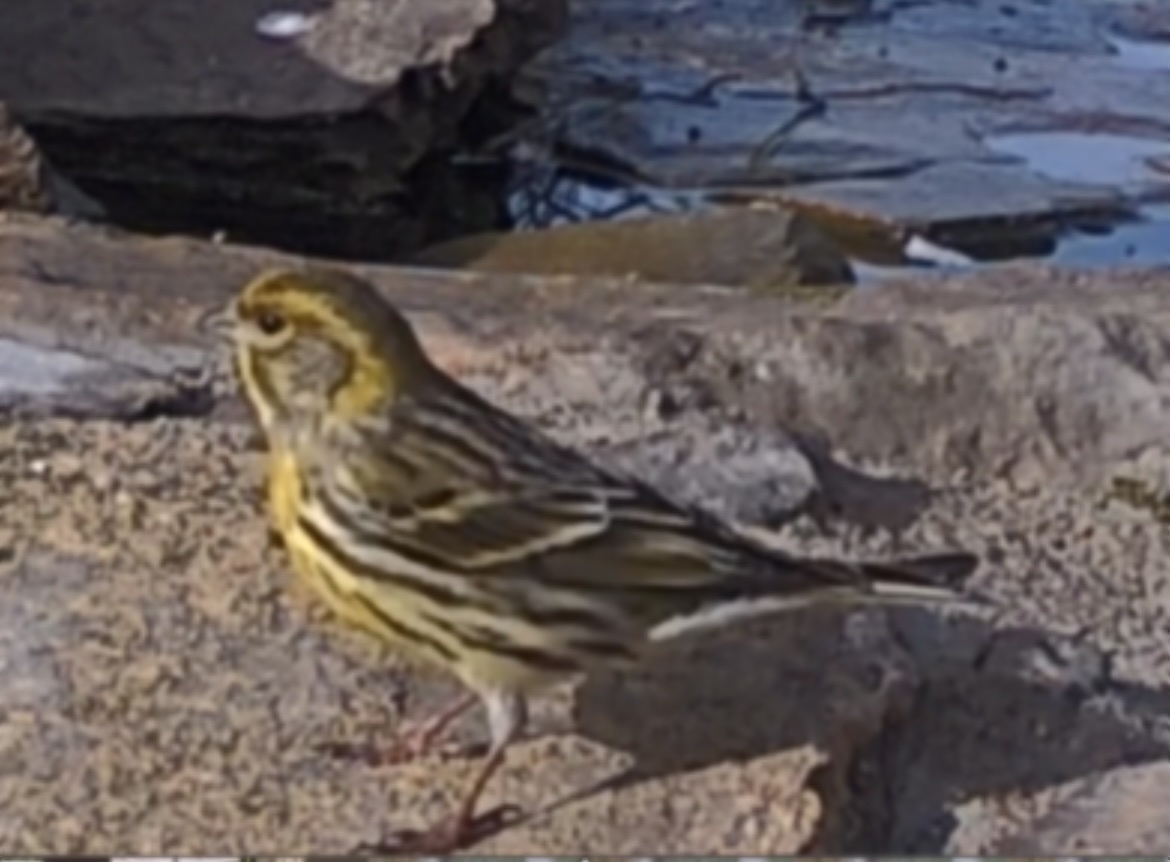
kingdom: Animalia
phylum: Chordata
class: Aves
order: Passeriformes
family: Fringillidae
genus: Serinus
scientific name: Serinus serinus
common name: European serin
